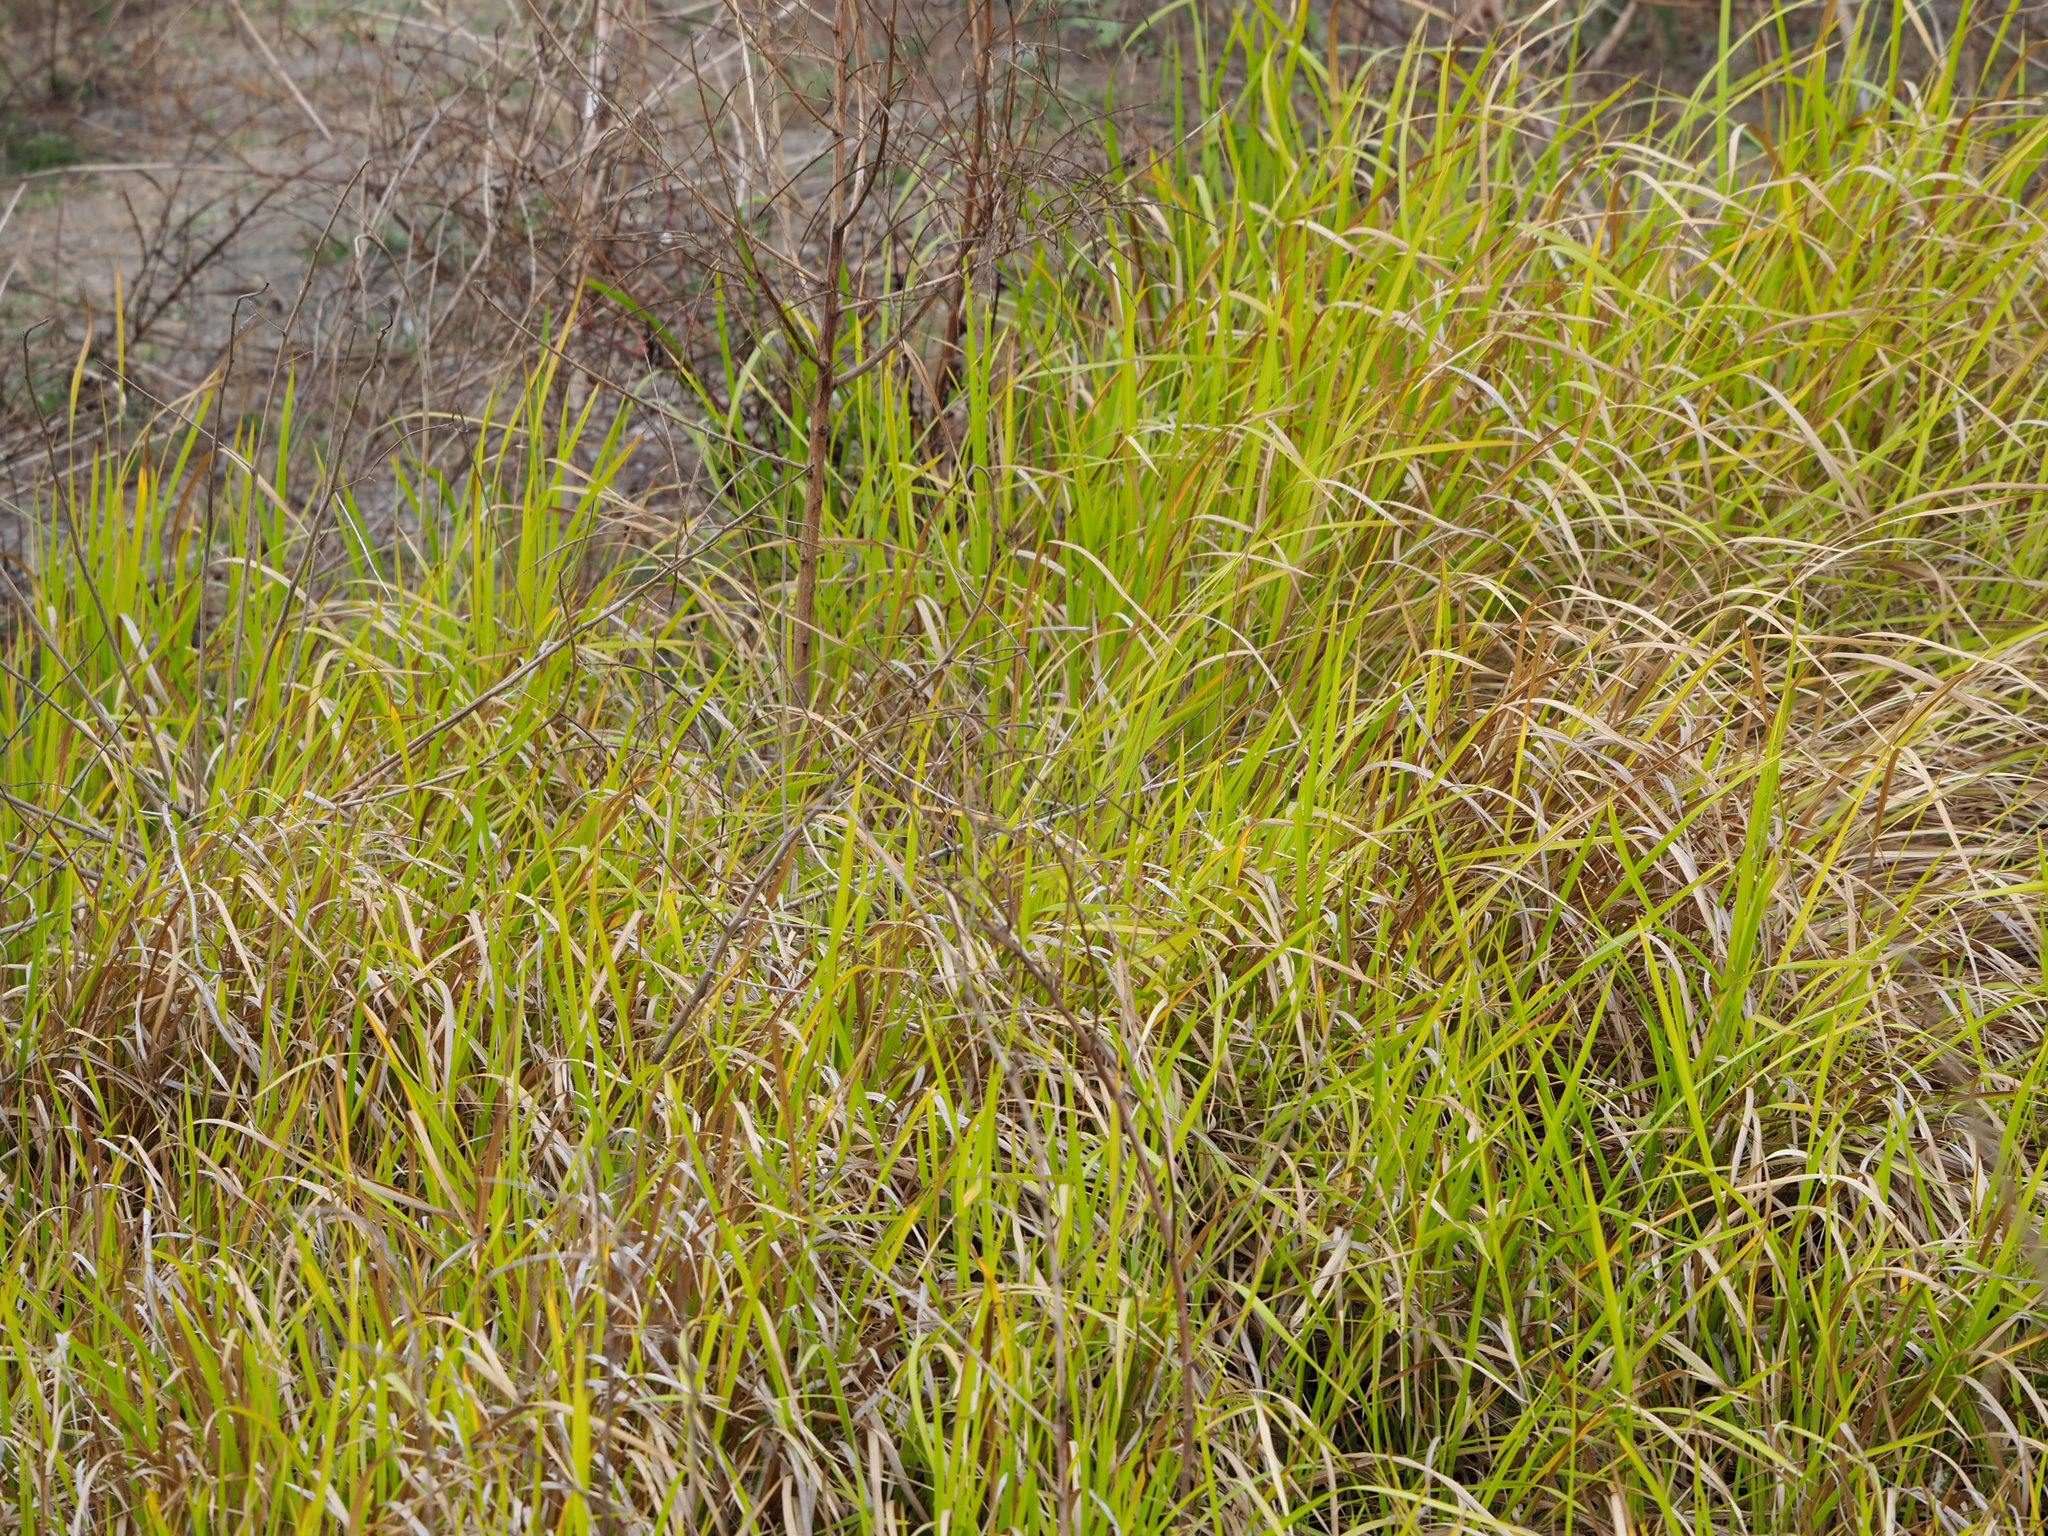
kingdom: Plantae
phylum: Tracheophyta
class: Liliopsida
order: Poales
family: Poaceae
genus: Imperata
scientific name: Imperata cylindrica
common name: Cogongrass
